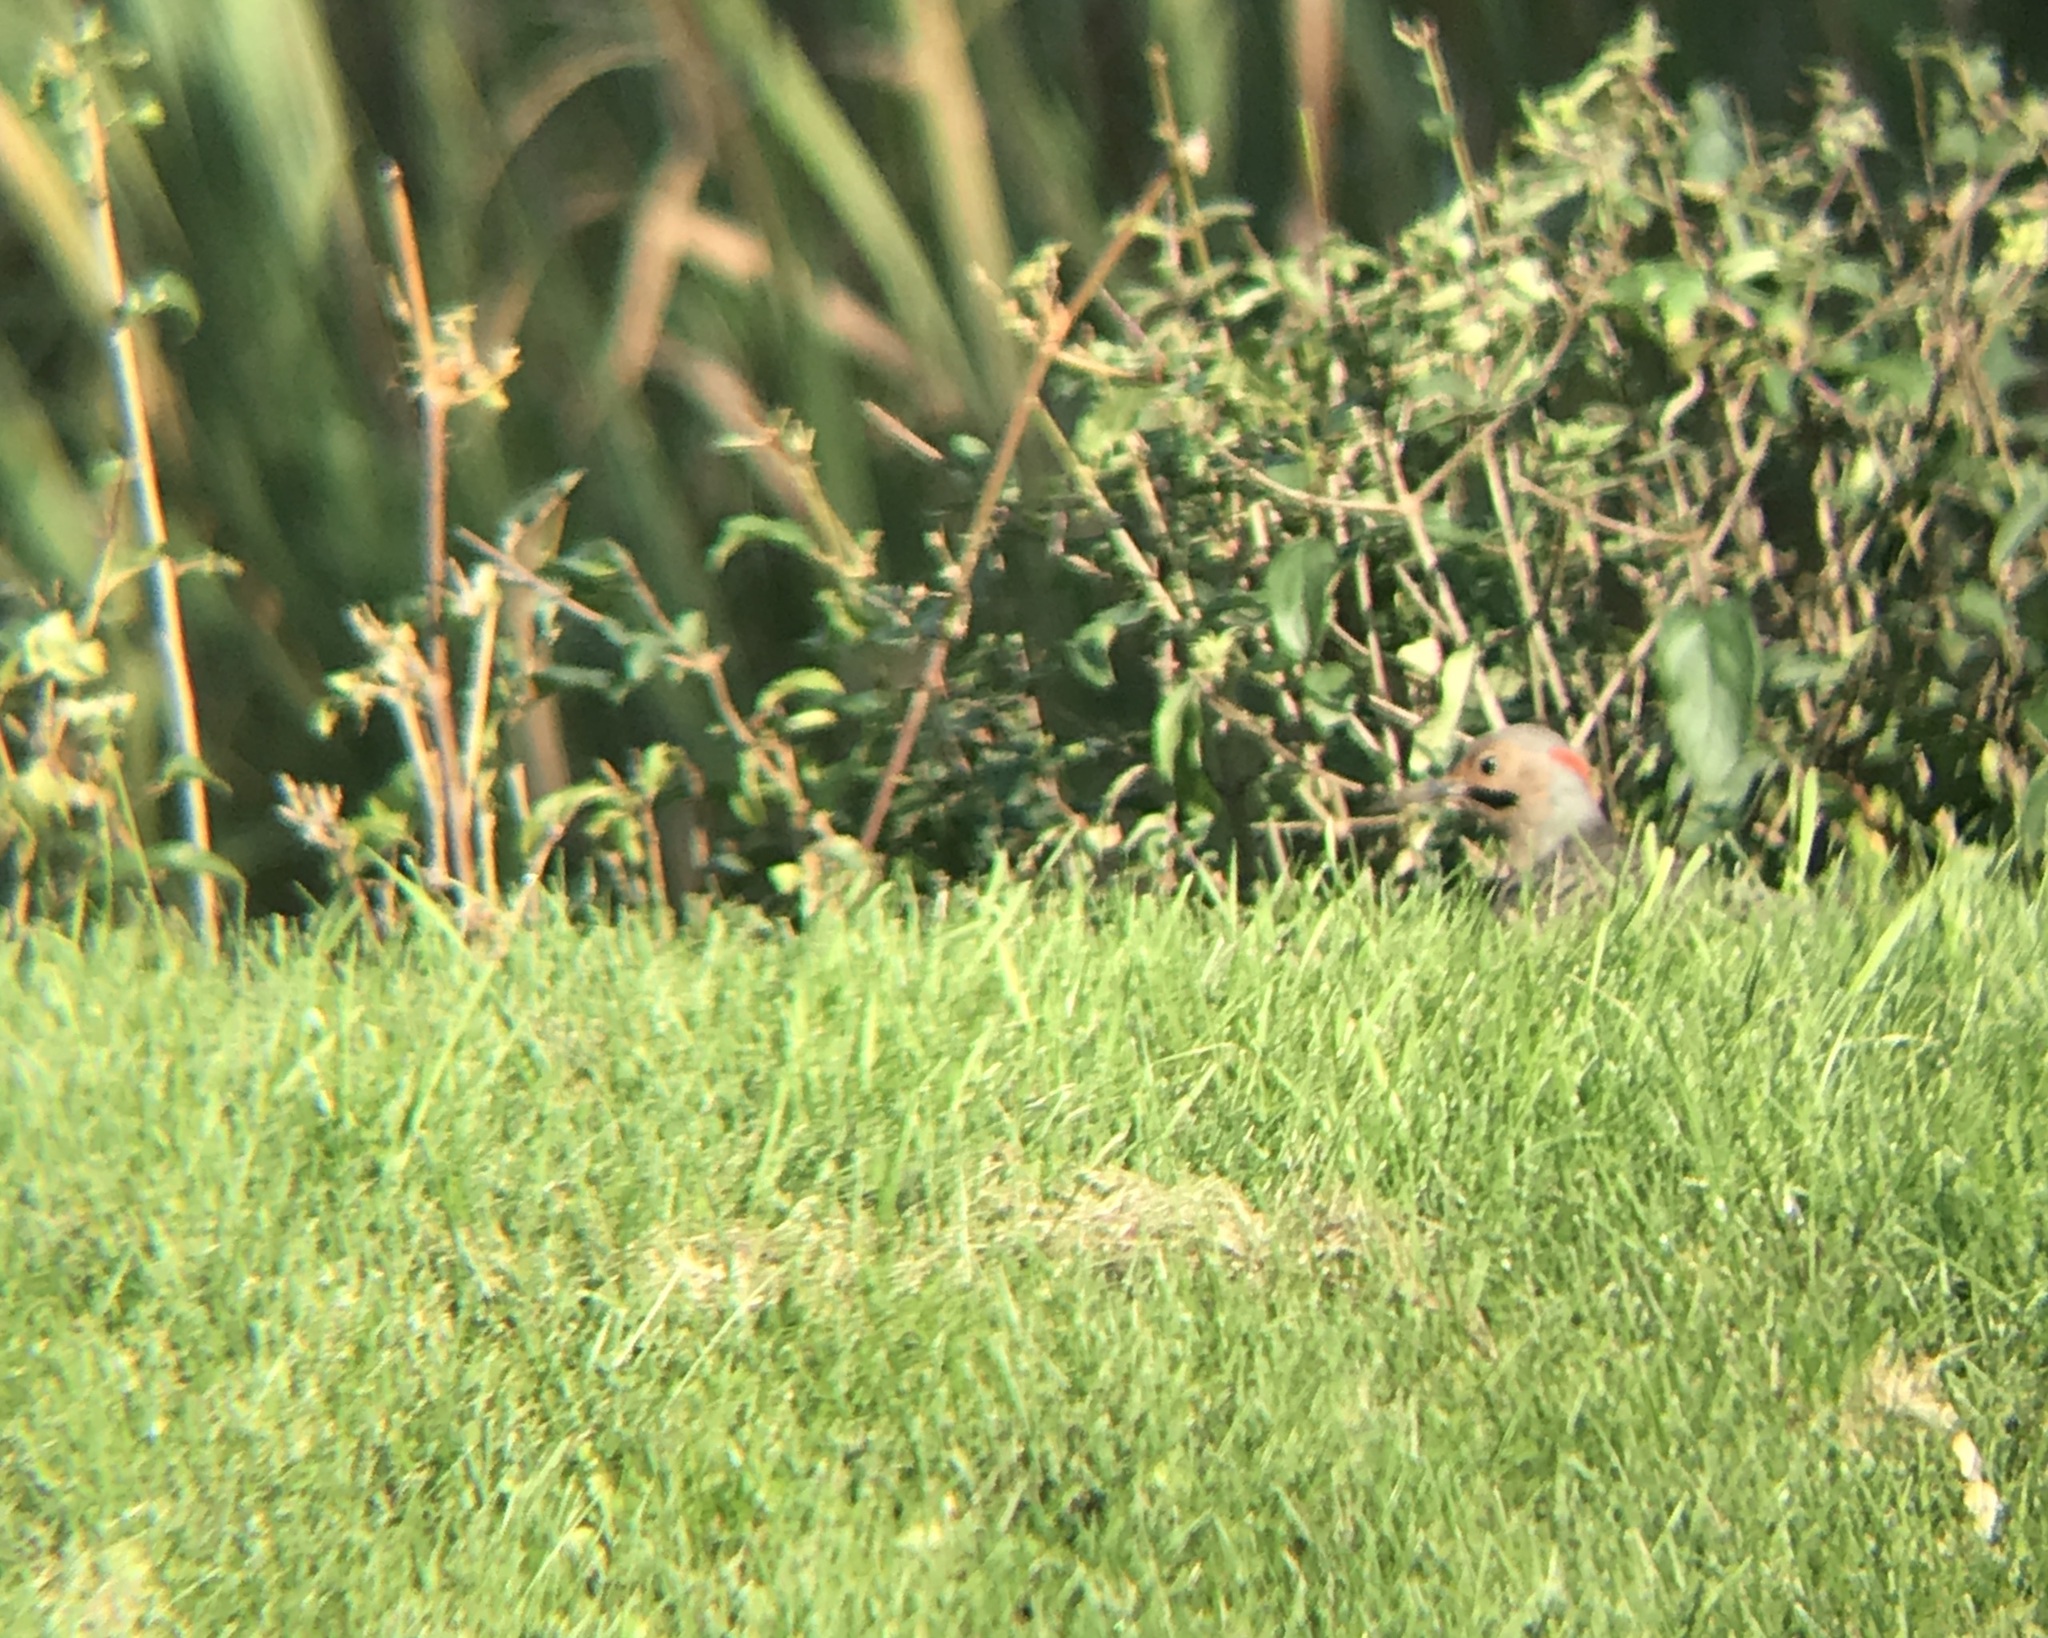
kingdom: Animalia
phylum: Chordata
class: Aves
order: Piciformes
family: Picidae
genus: Colaptes
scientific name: Colaptes auratus
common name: Northern flicker
